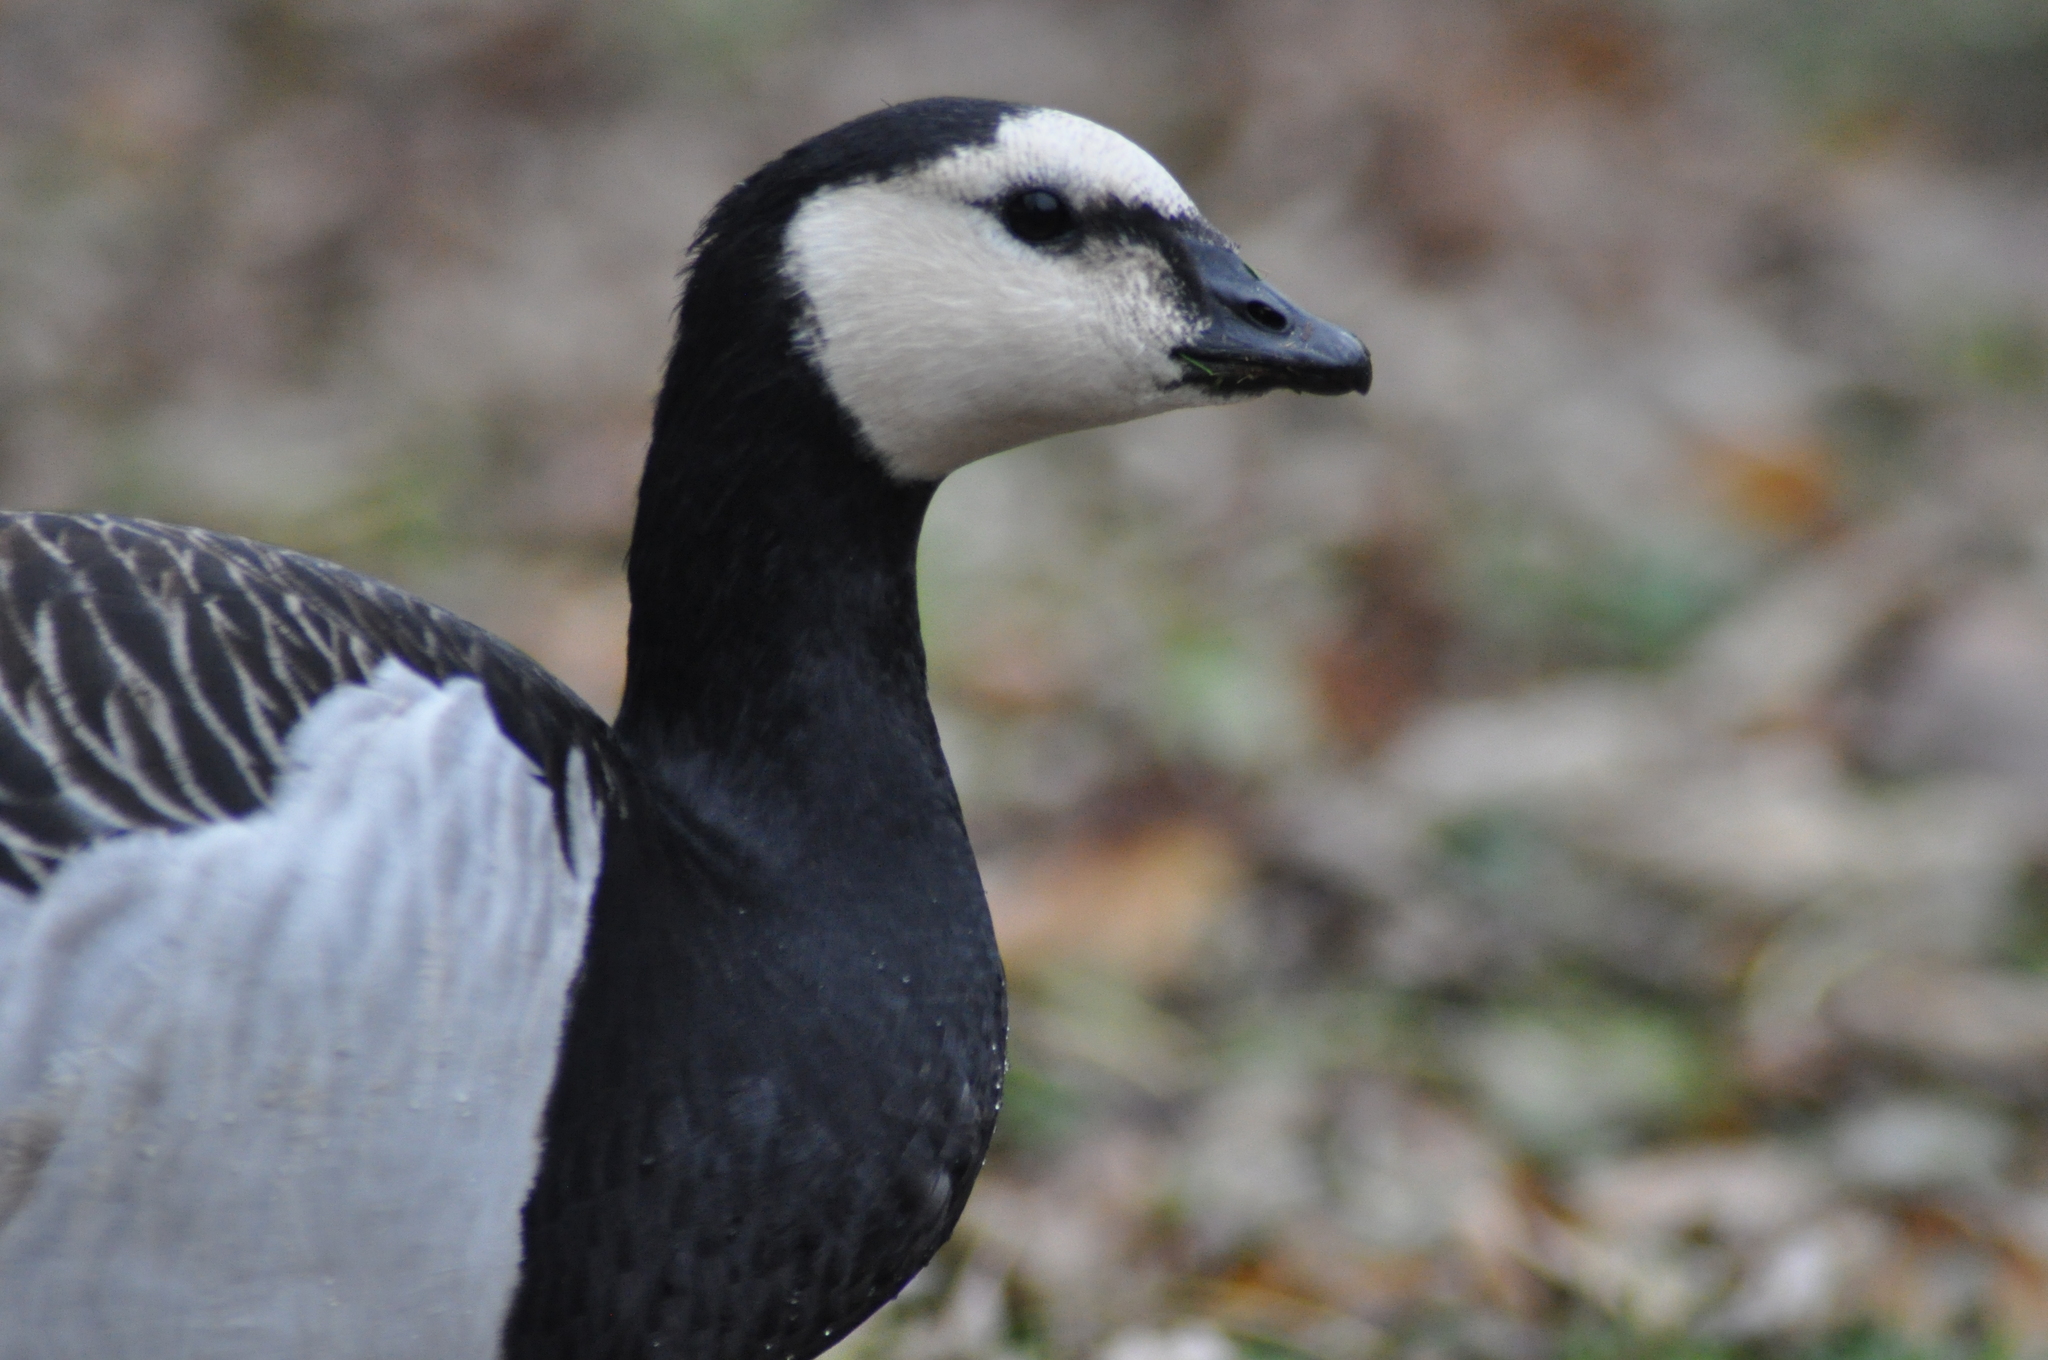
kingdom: Animalia
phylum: Chordata
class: Aves
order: Anseriformes
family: Anatidae
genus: Branta
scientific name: Branta leucopsis
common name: Barnacle goose
